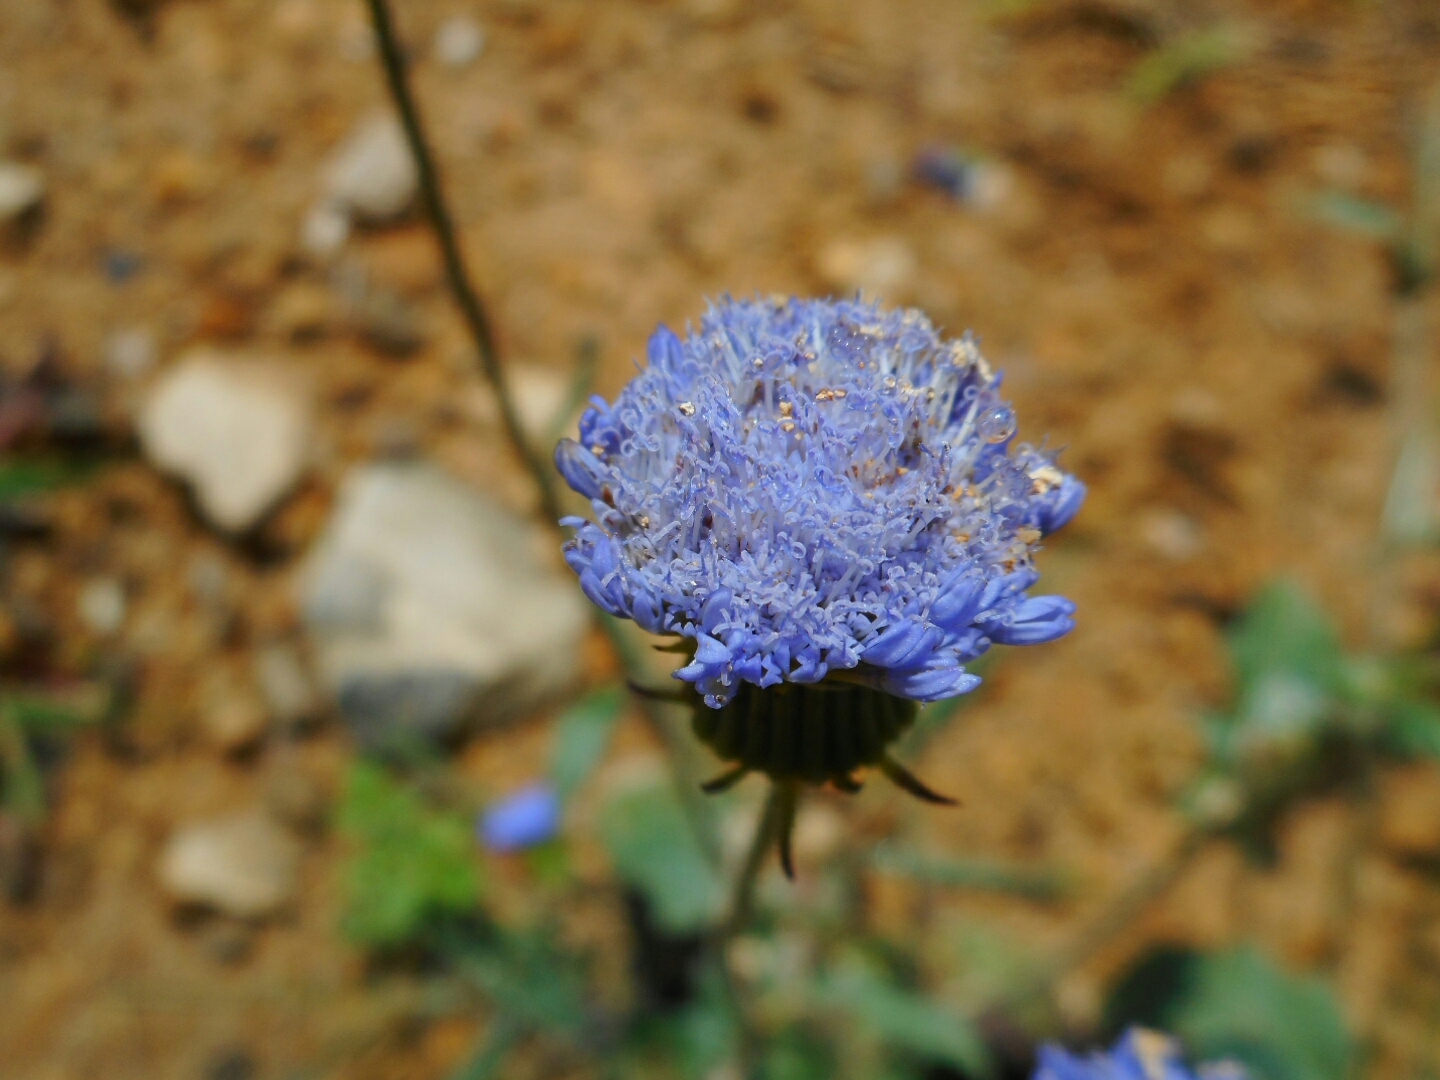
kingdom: Plantae
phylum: Tracheophyta
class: Magnoliopsida
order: Asterales
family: Asteraceae
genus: Crassocephalum
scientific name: Crassocephalum rubens
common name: Yoruban bologi
